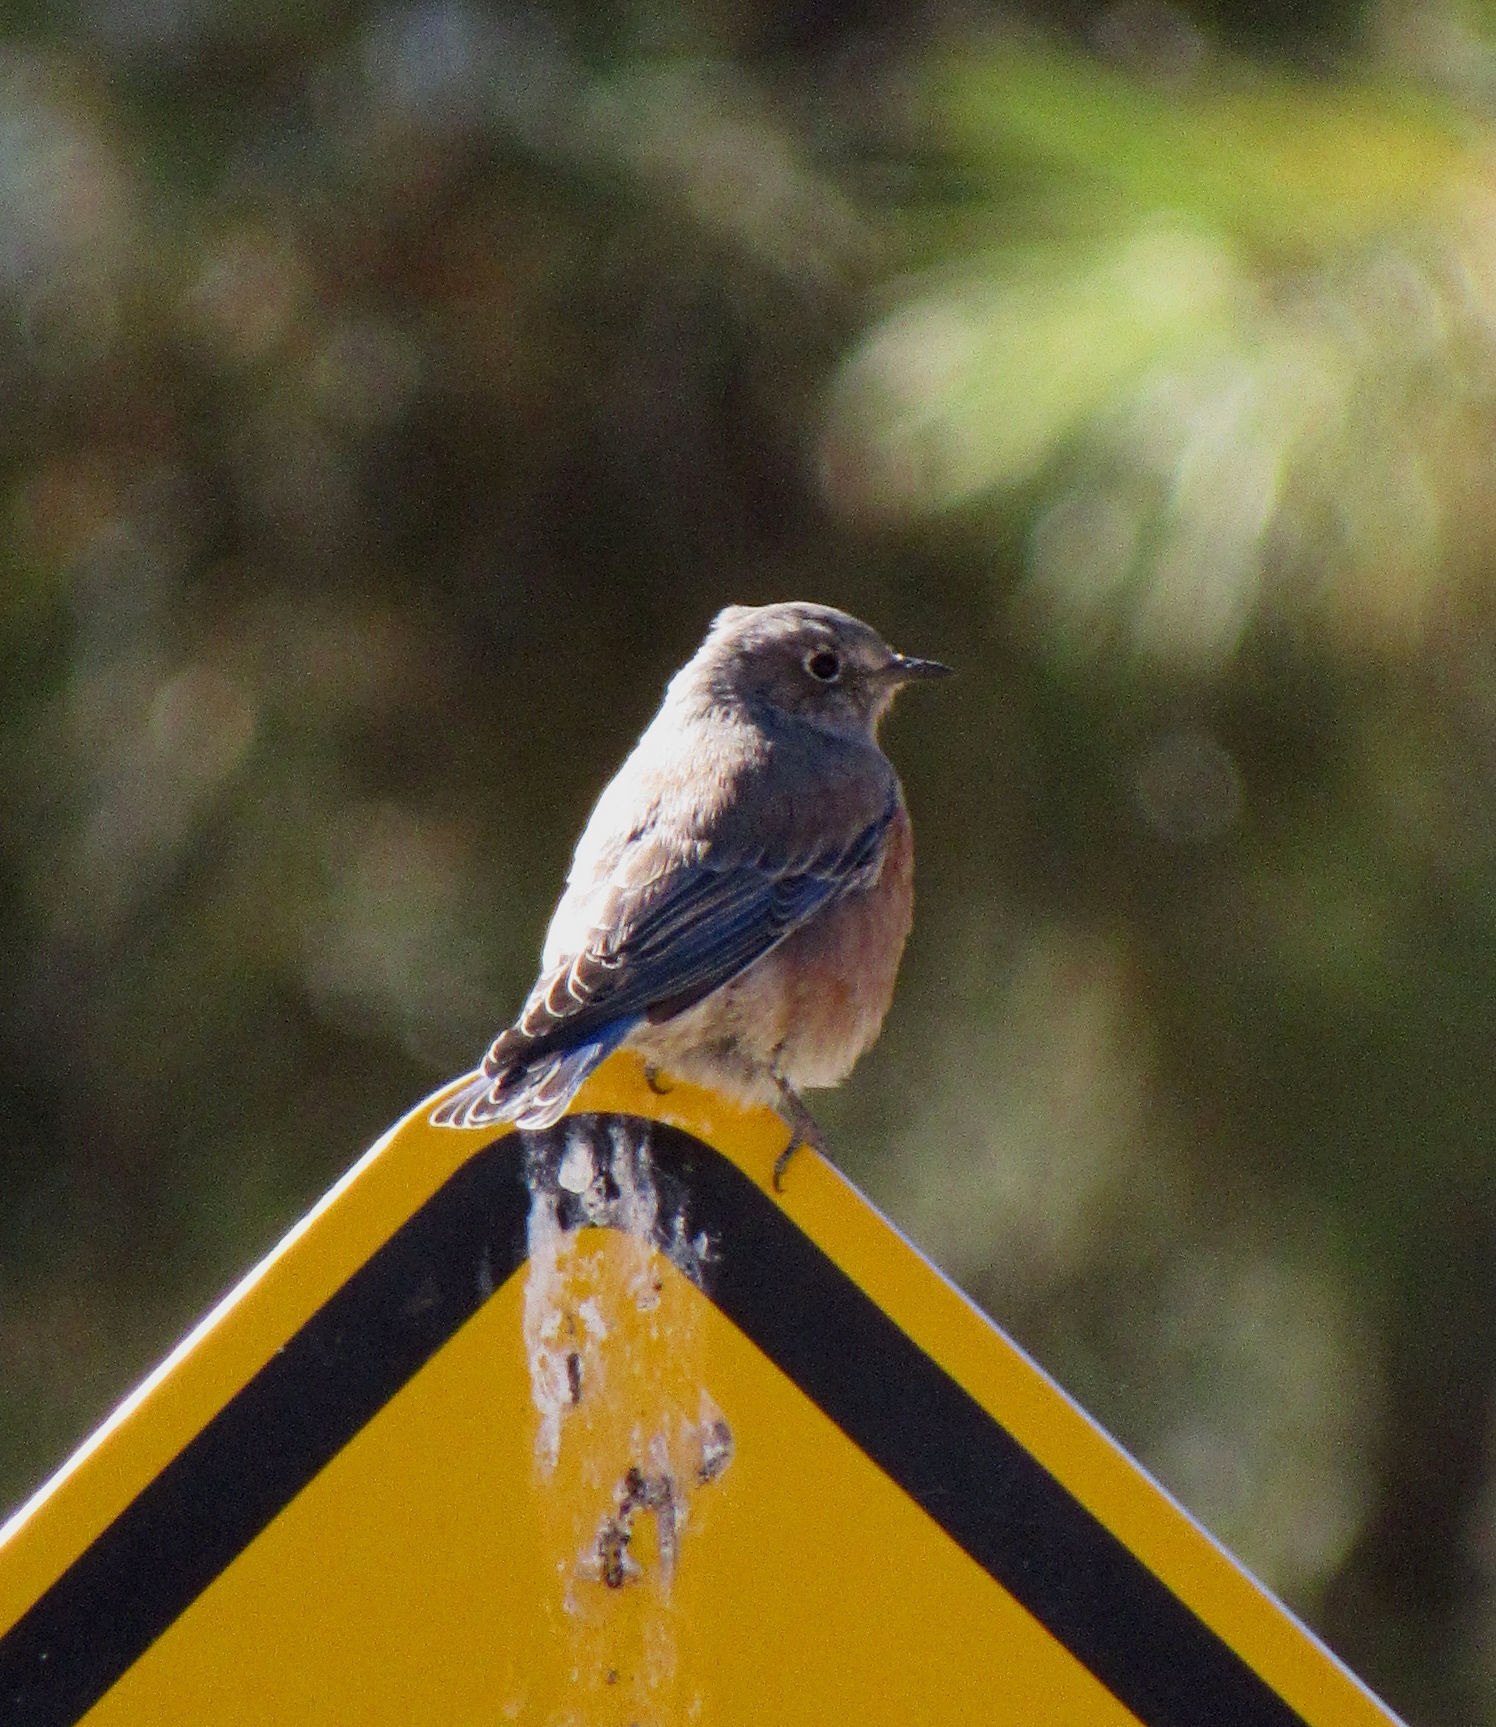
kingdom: Animalia
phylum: Chordata
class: Aves
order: Passeriformes
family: Turdidae
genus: Sialia
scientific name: Sialia mexicana
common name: Western bluebird
